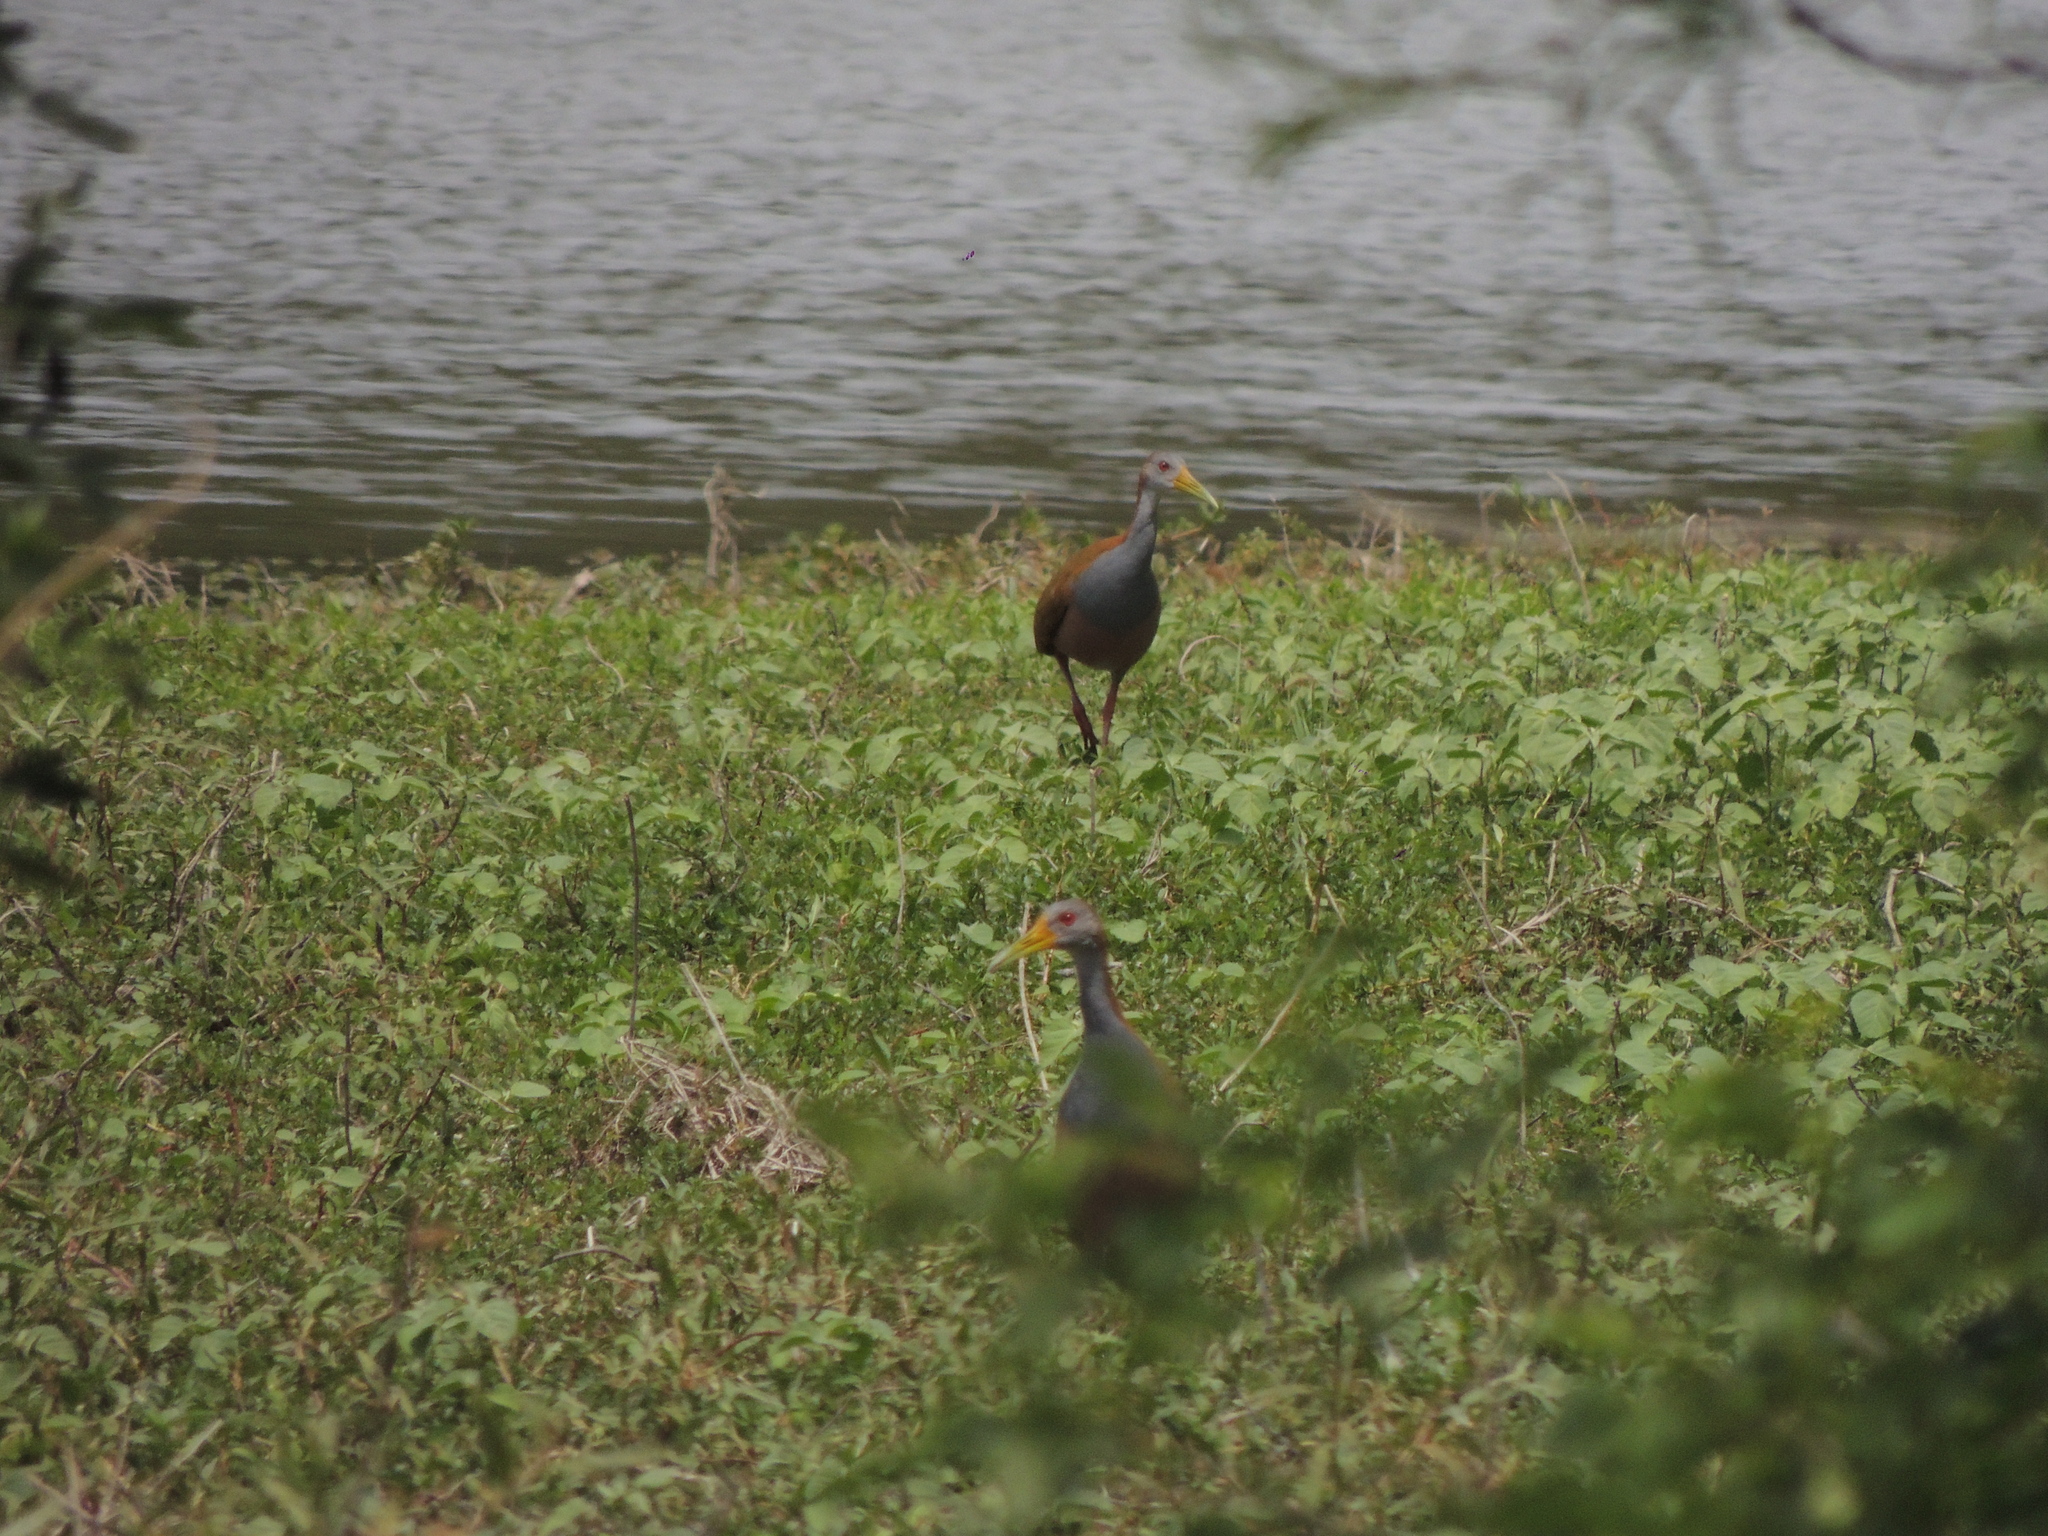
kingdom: Animalia
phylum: Chordata
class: Aves
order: Gruiformes
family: Rallidae
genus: Aramides
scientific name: Aramides ypecaha
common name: Giant wood rail
